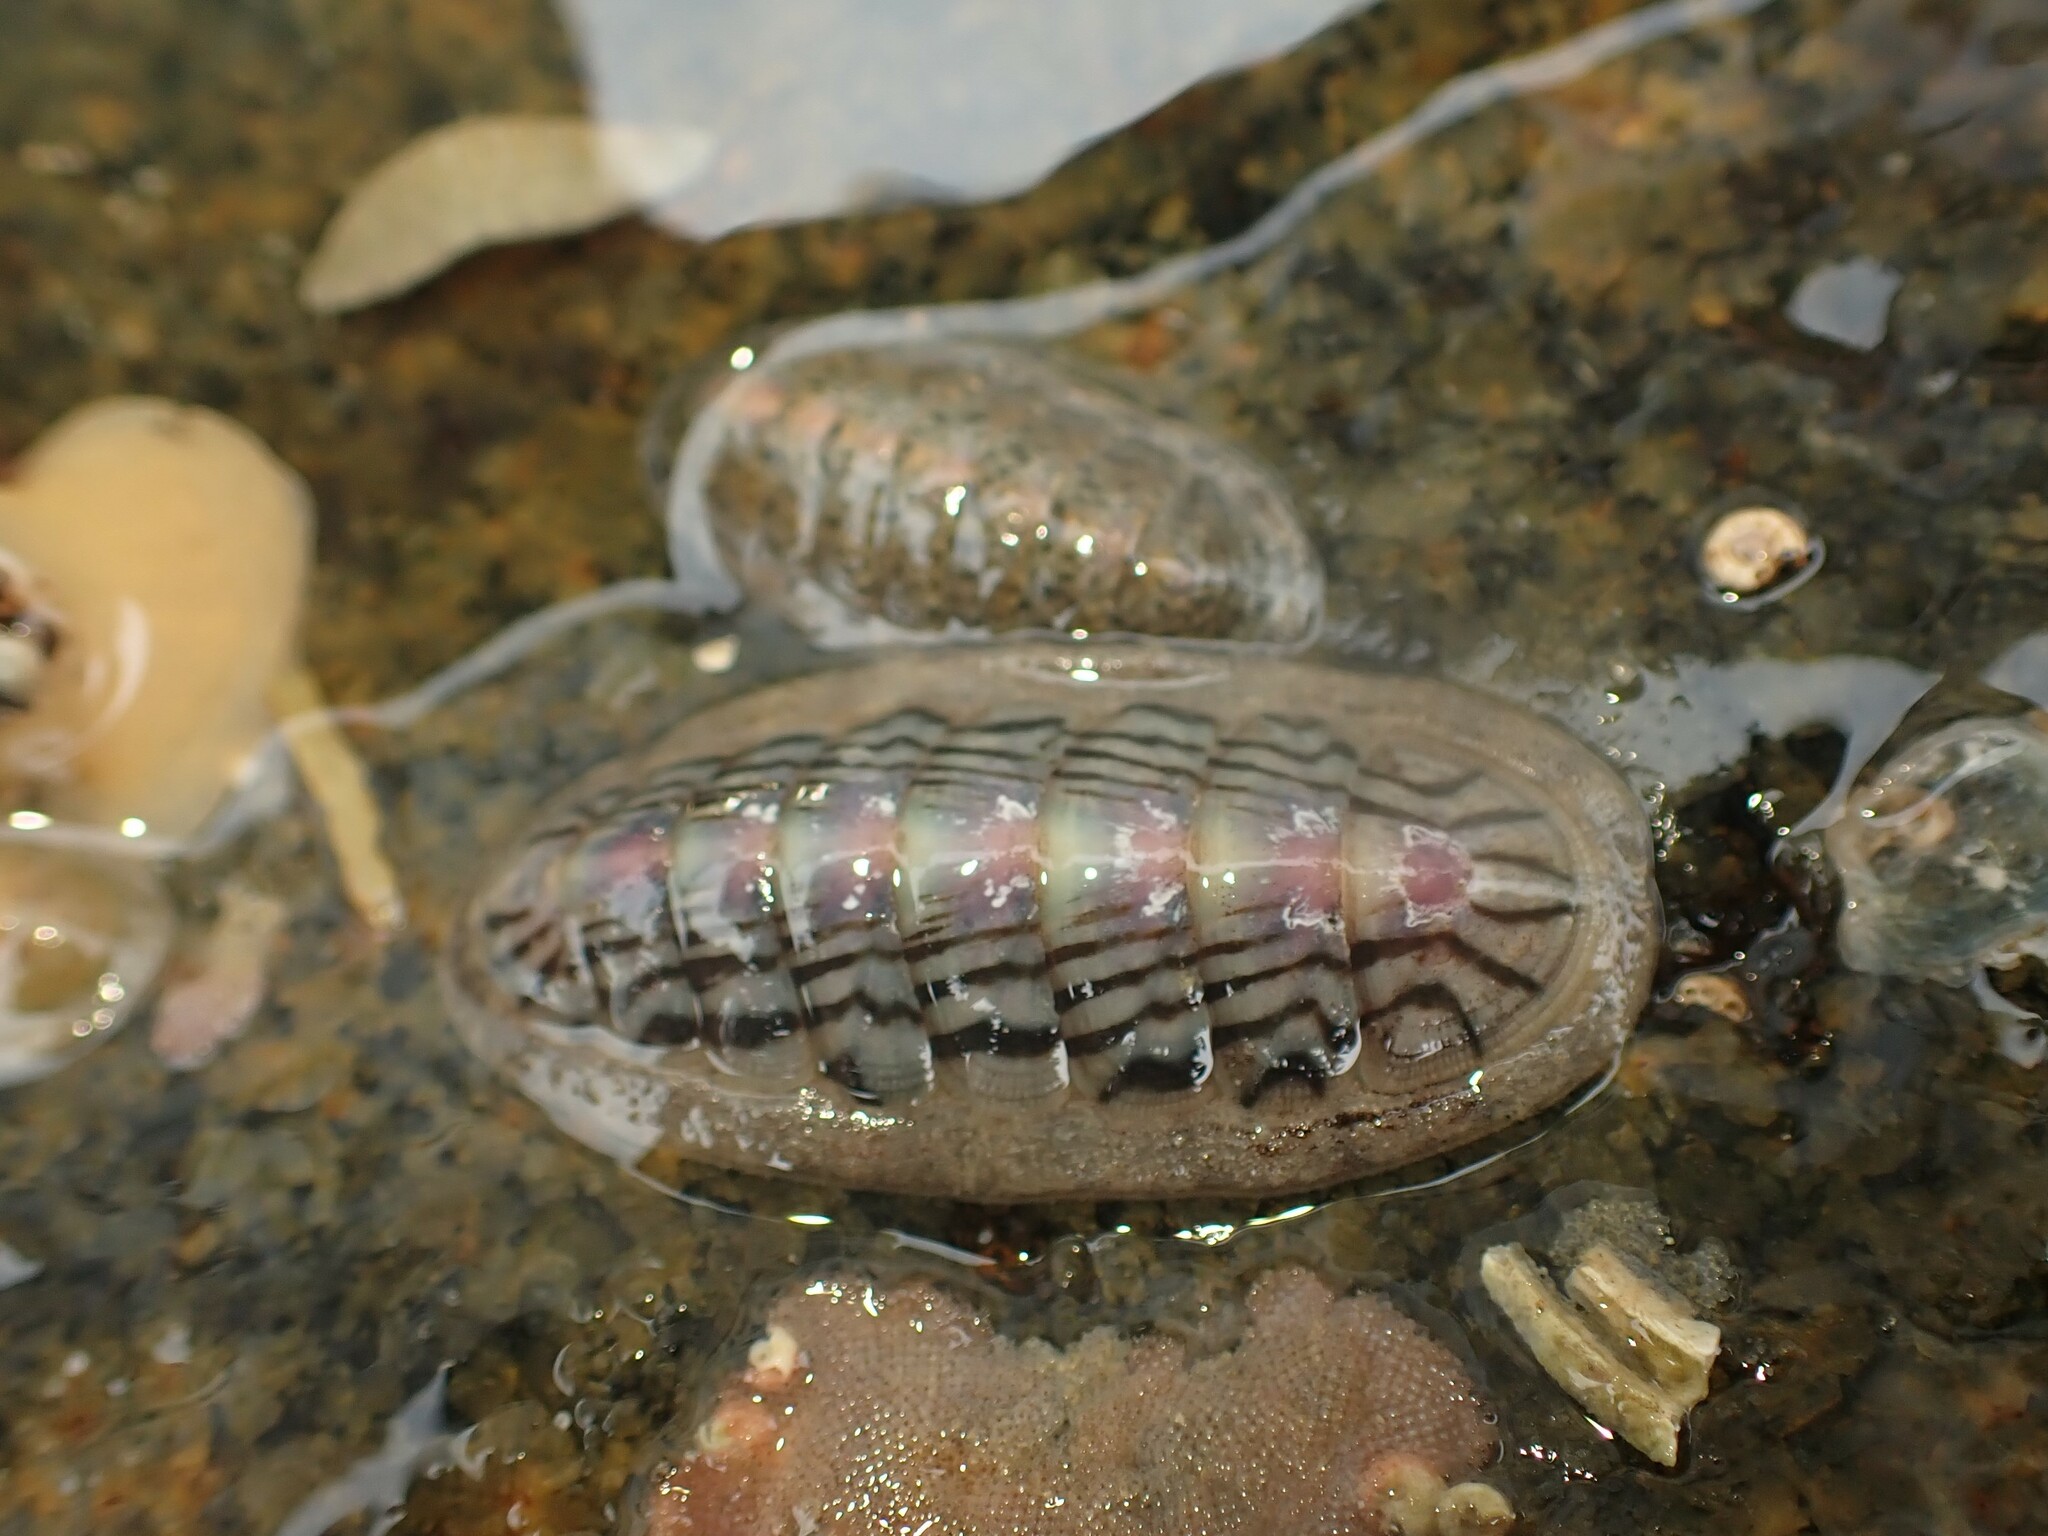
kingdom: Animalia
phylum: Mollusca
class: Polyplacophora
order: Chitonida
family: Ischnochitonidae
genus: Ischnochiton
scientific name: Ischnochiton maorianus
